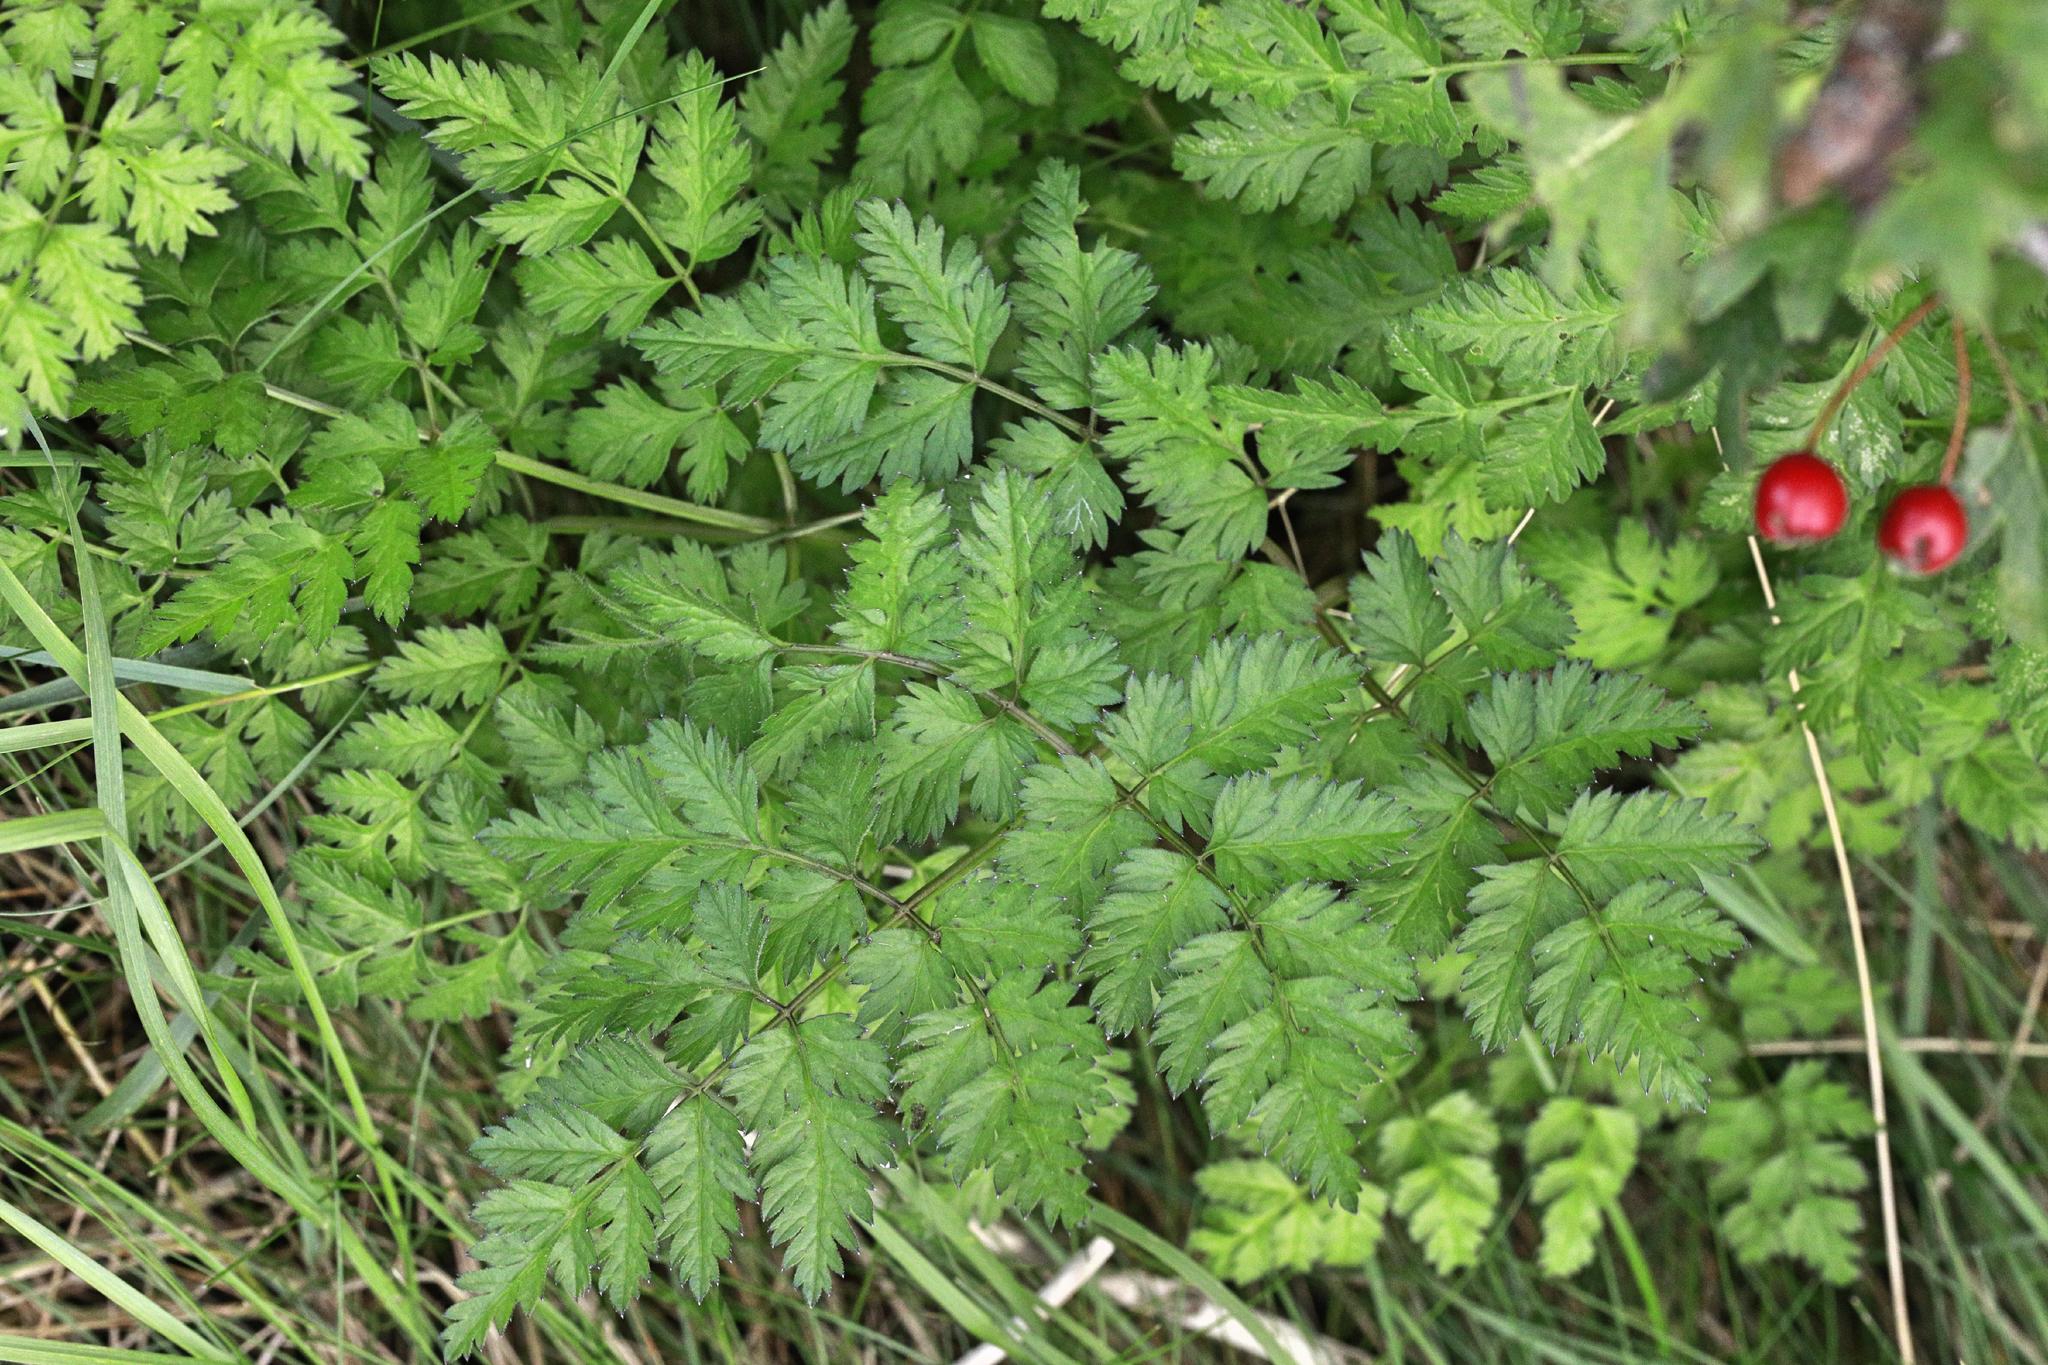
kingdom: Plantae
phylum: Tracheophyta
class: Magnoliopsida
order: Apiales
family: Apiaceae
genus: Anthriscus
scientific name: Anthriscus sylvestris
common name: Cow parsley
